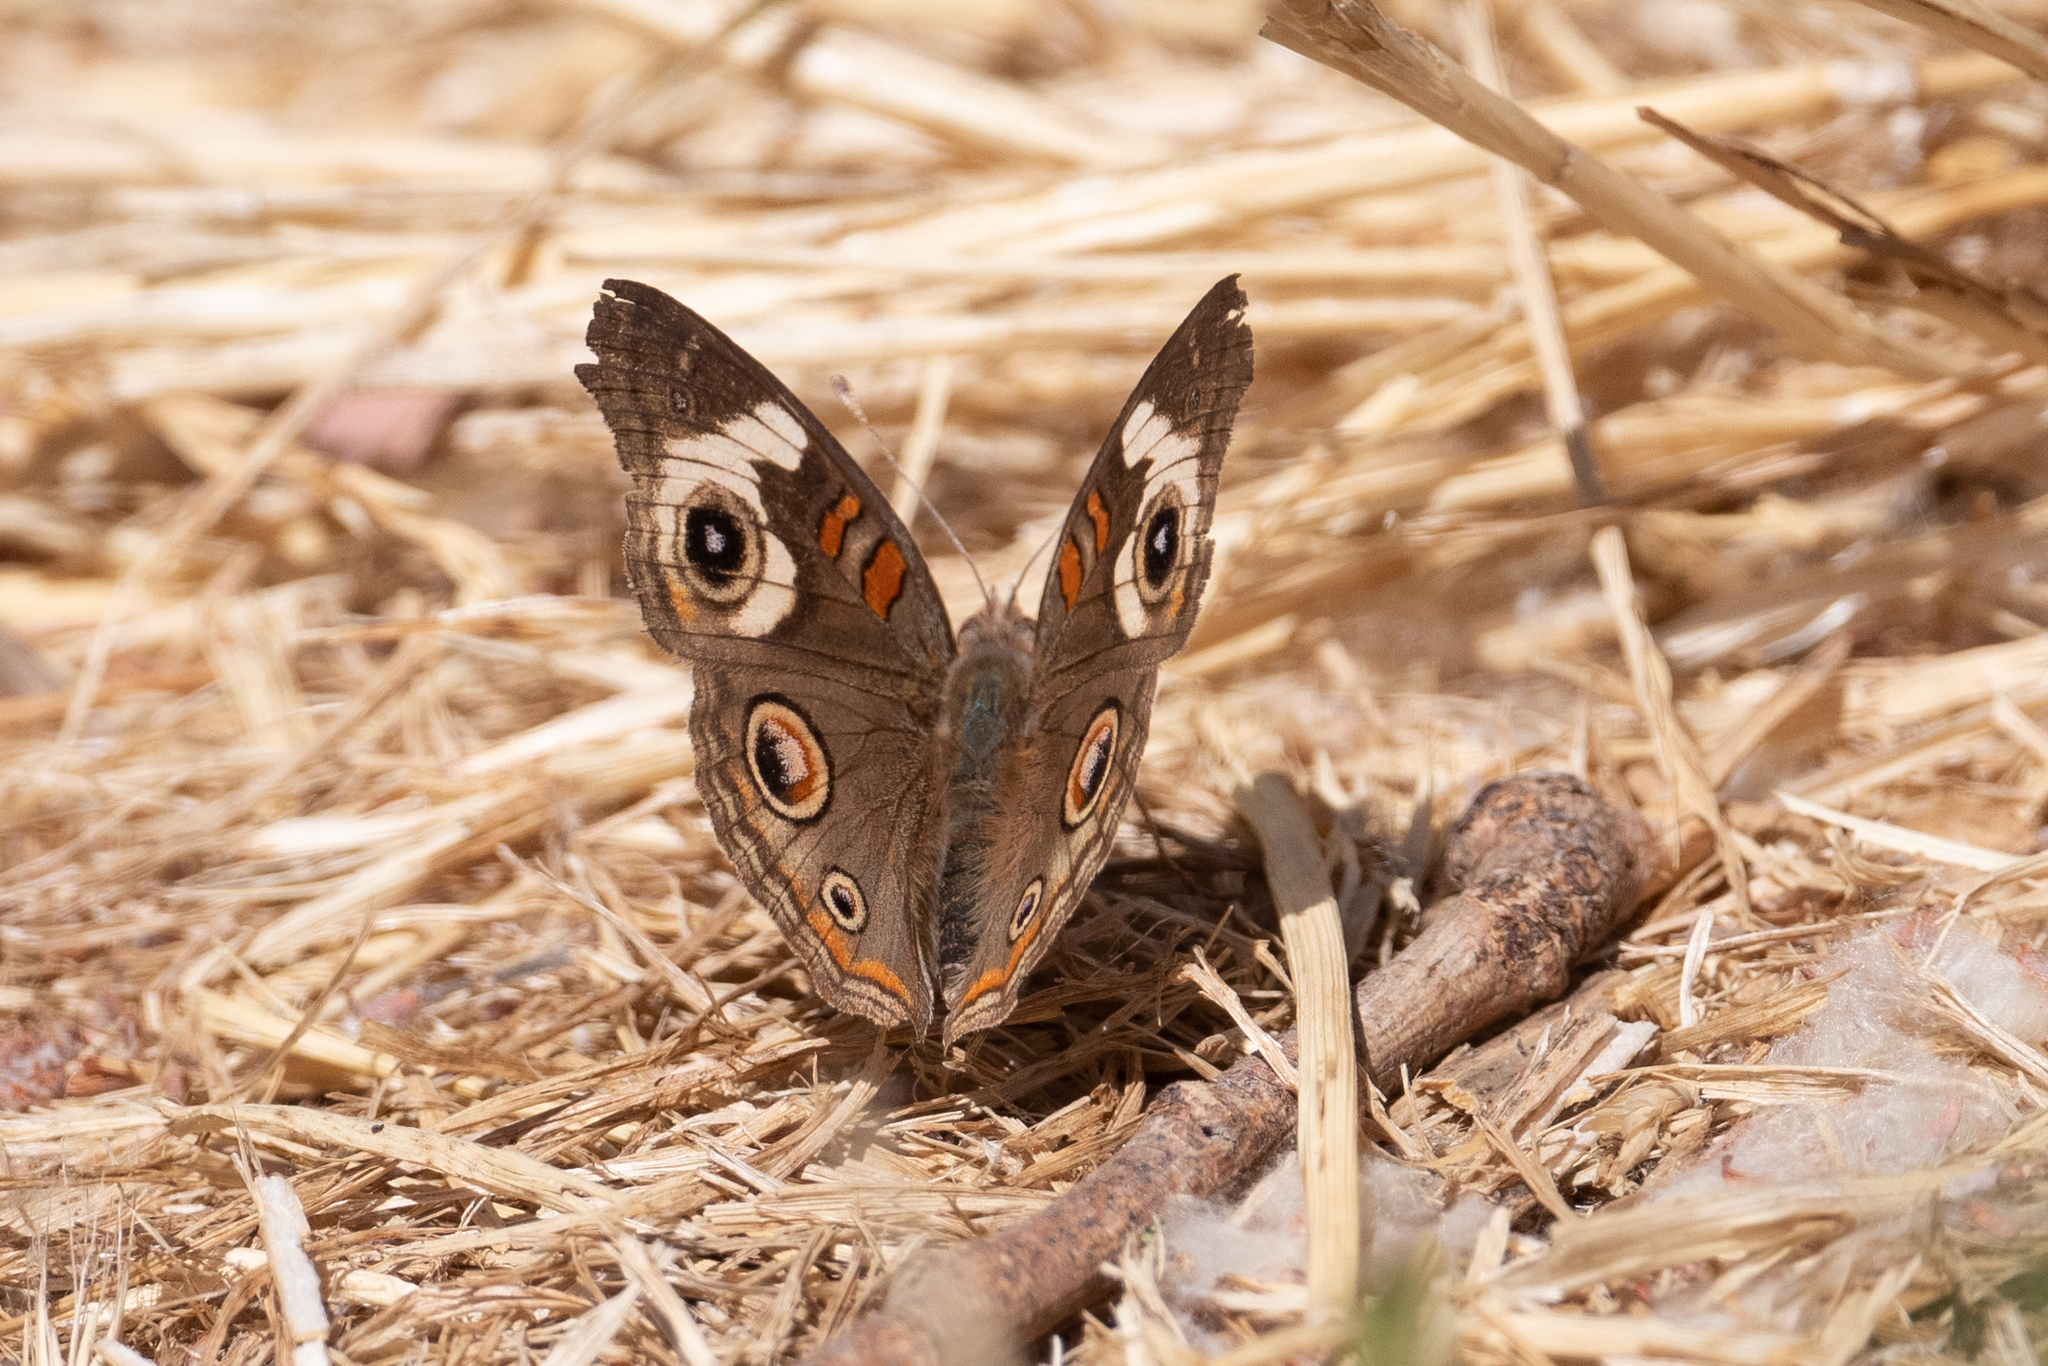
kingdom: Animalia
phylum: Arthropoda
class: Insecta
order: Lepidoptera
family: Nymphalidae
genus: Junonia
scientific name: Junonia grisea
